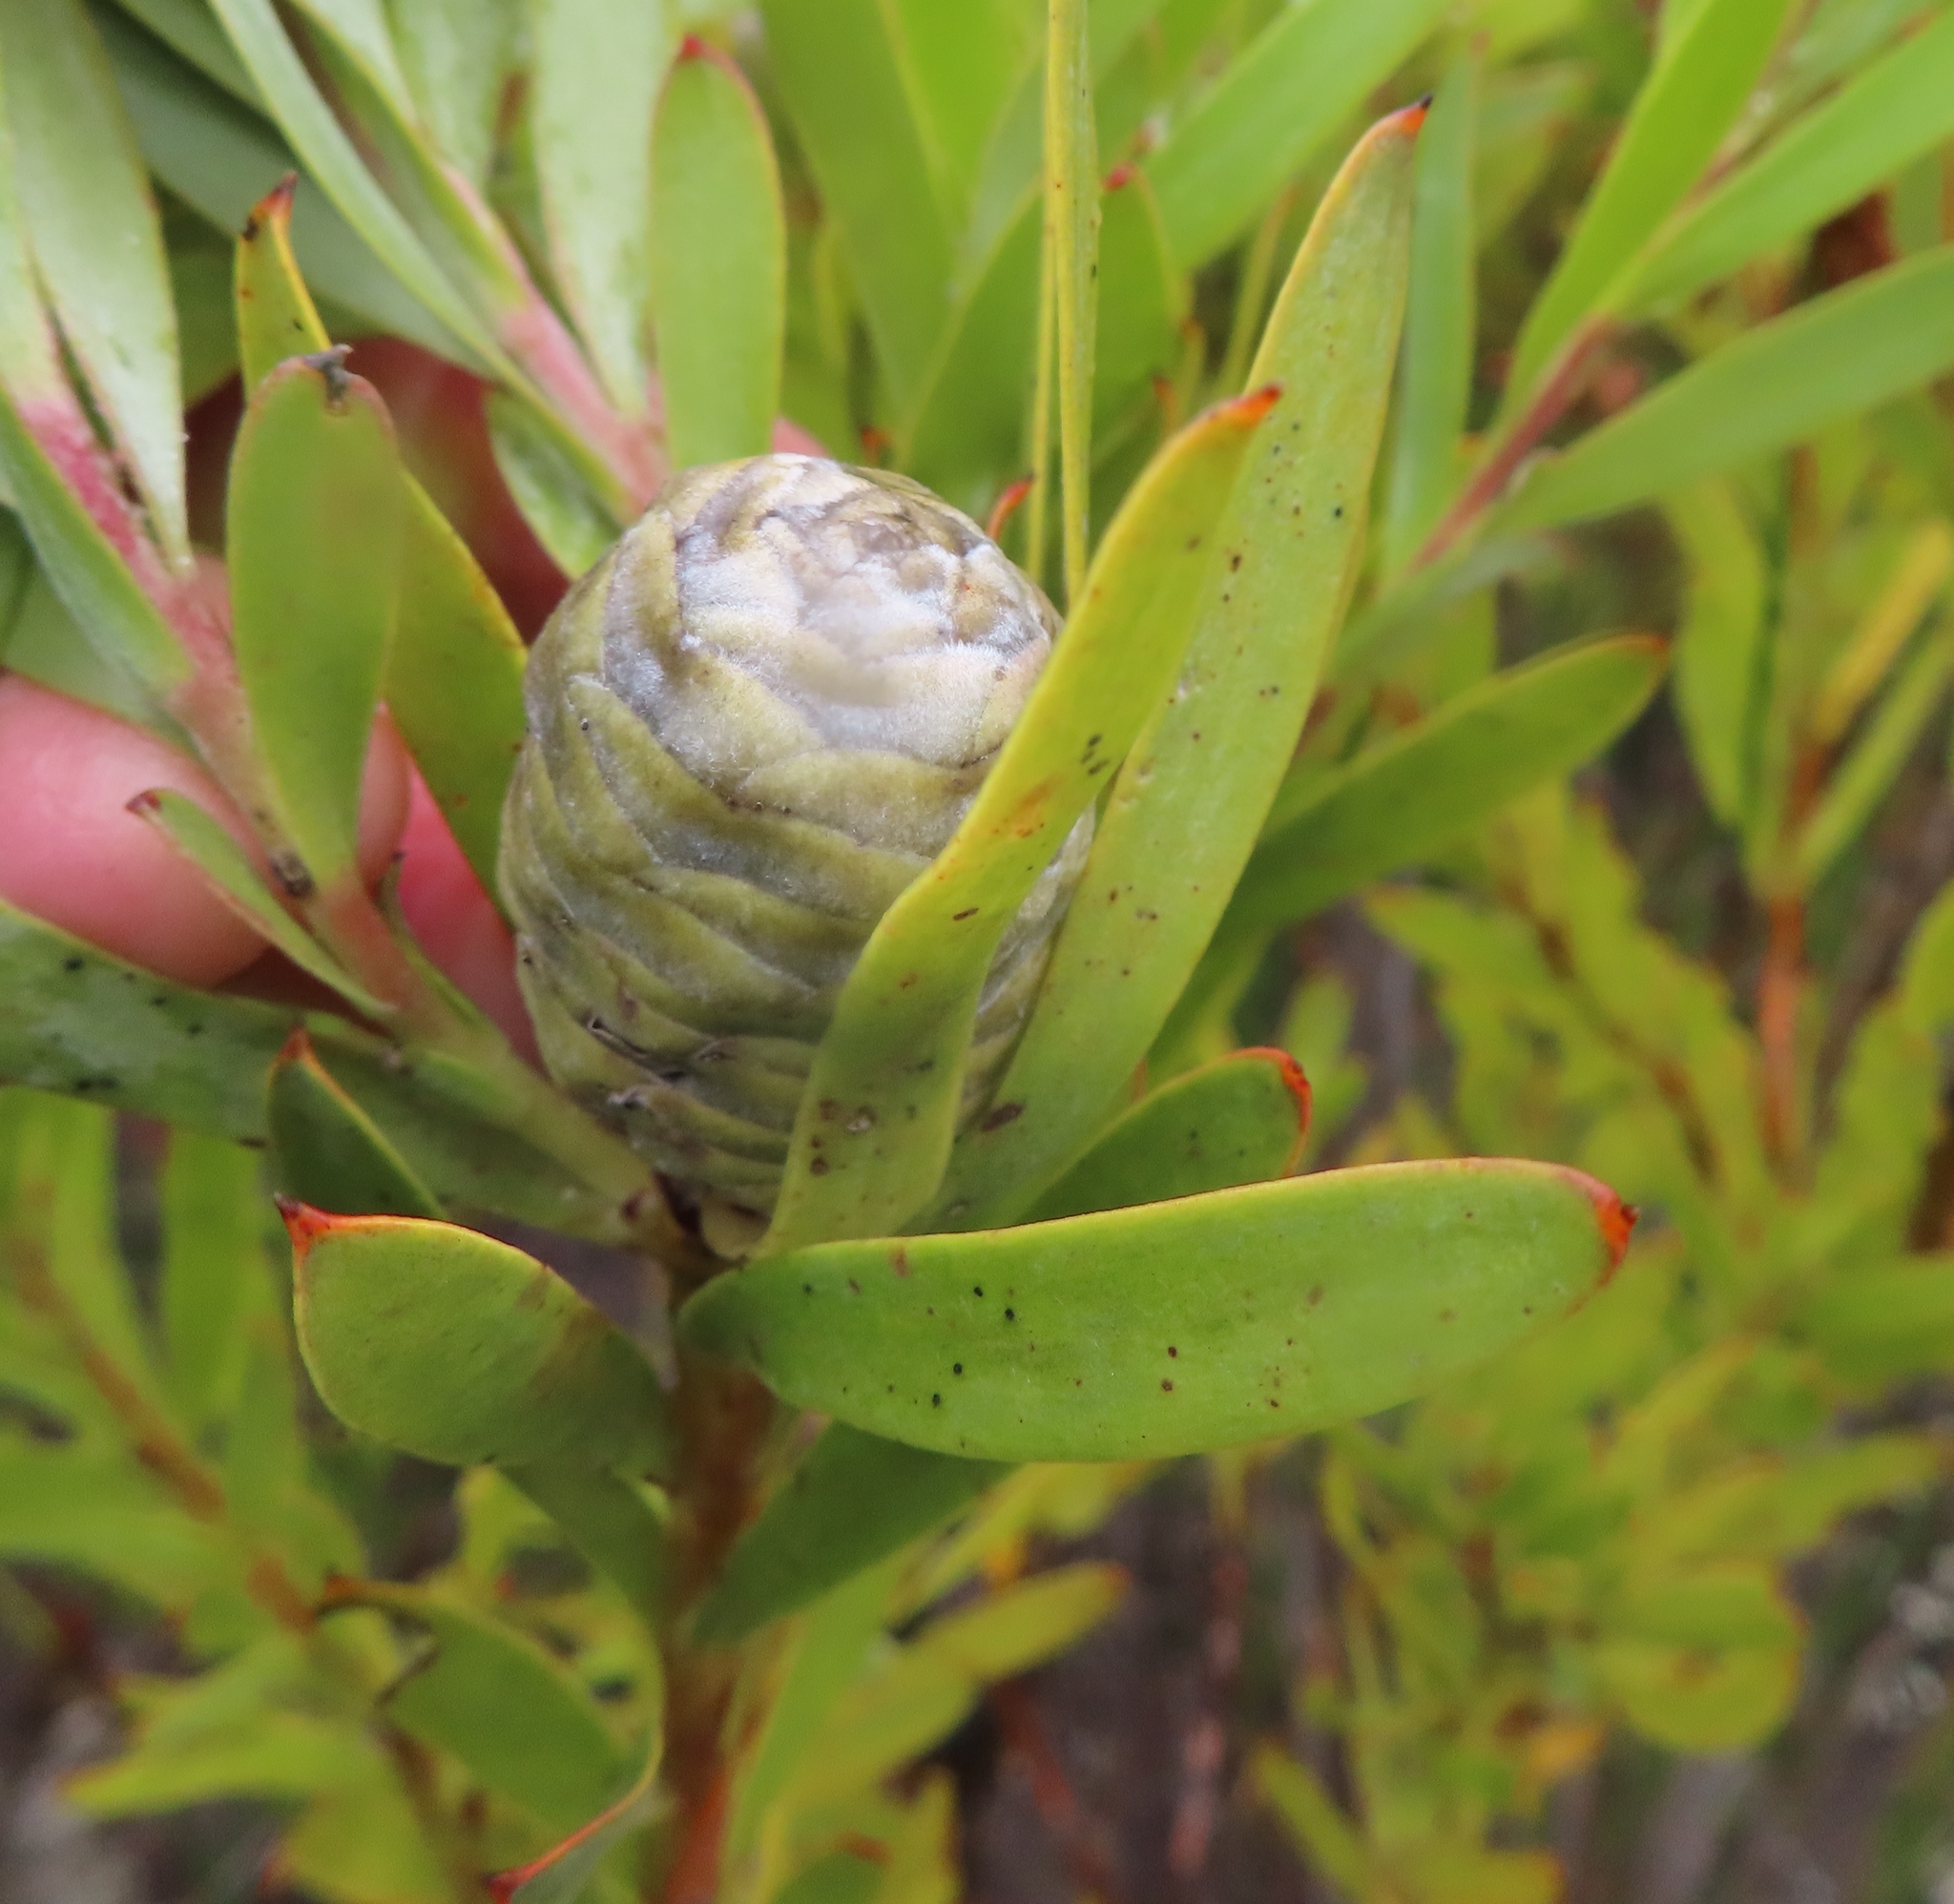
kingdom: Plantae
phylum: Tracheophyta
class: Magnoliopsida
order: Proteales
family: Proteaceae
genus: Leucadendron
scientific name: Leucadendron meridianum
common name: Limestone conebush
